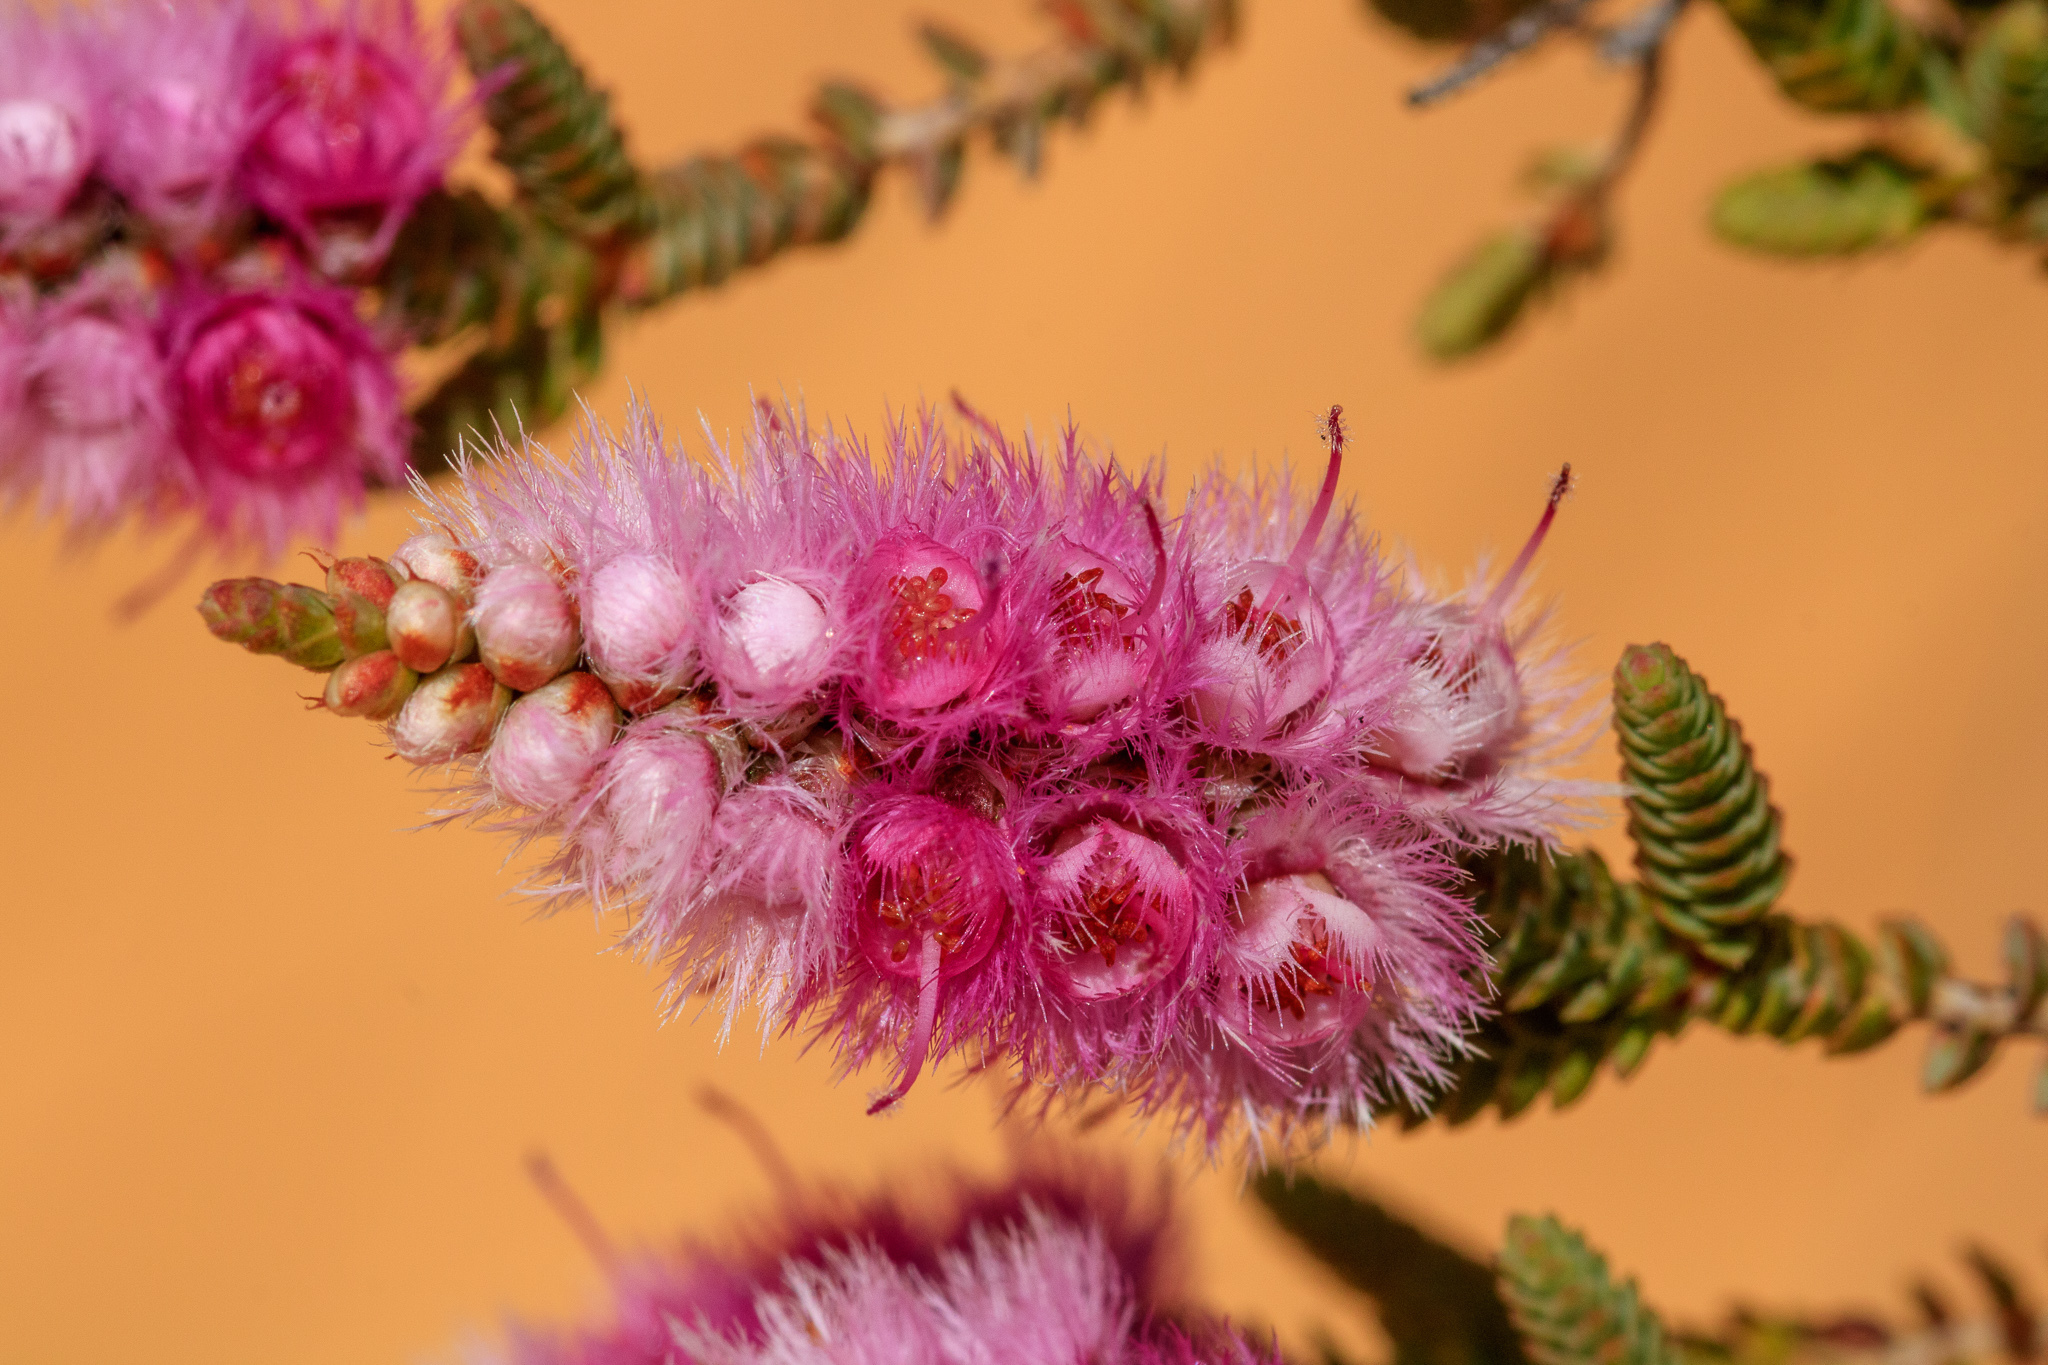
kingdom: Plantae
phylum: Tracheophyta
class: Magnoliopsida
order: Myrtales
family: Myrtaceae
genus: Verticordia
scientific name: Verticordia spicata
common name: Spike feather-flower
